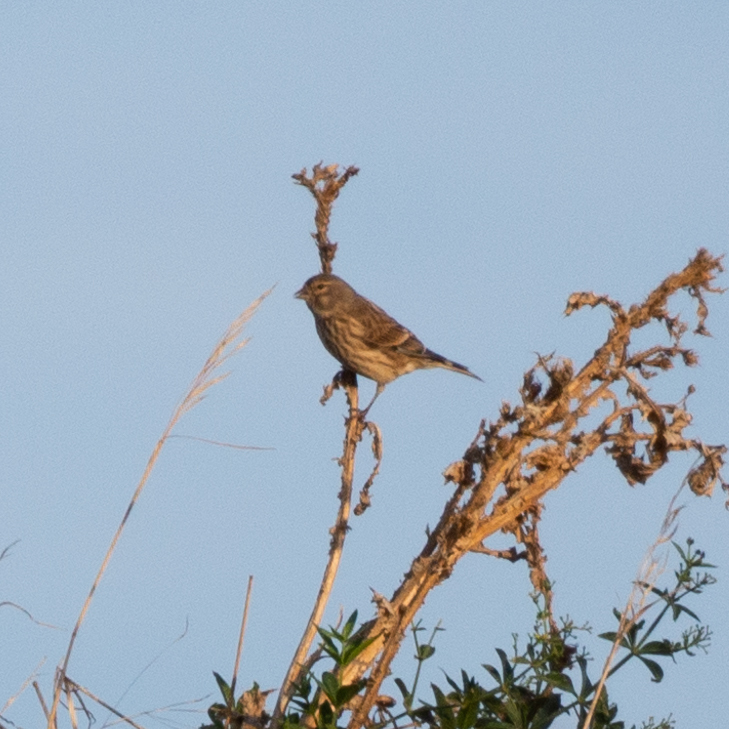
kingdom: Animalia
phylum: Chordata
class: Aves
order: Passeriformes
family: Fringillidae
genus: Linaria
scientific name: Linaria cannabina
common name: Common linnet
